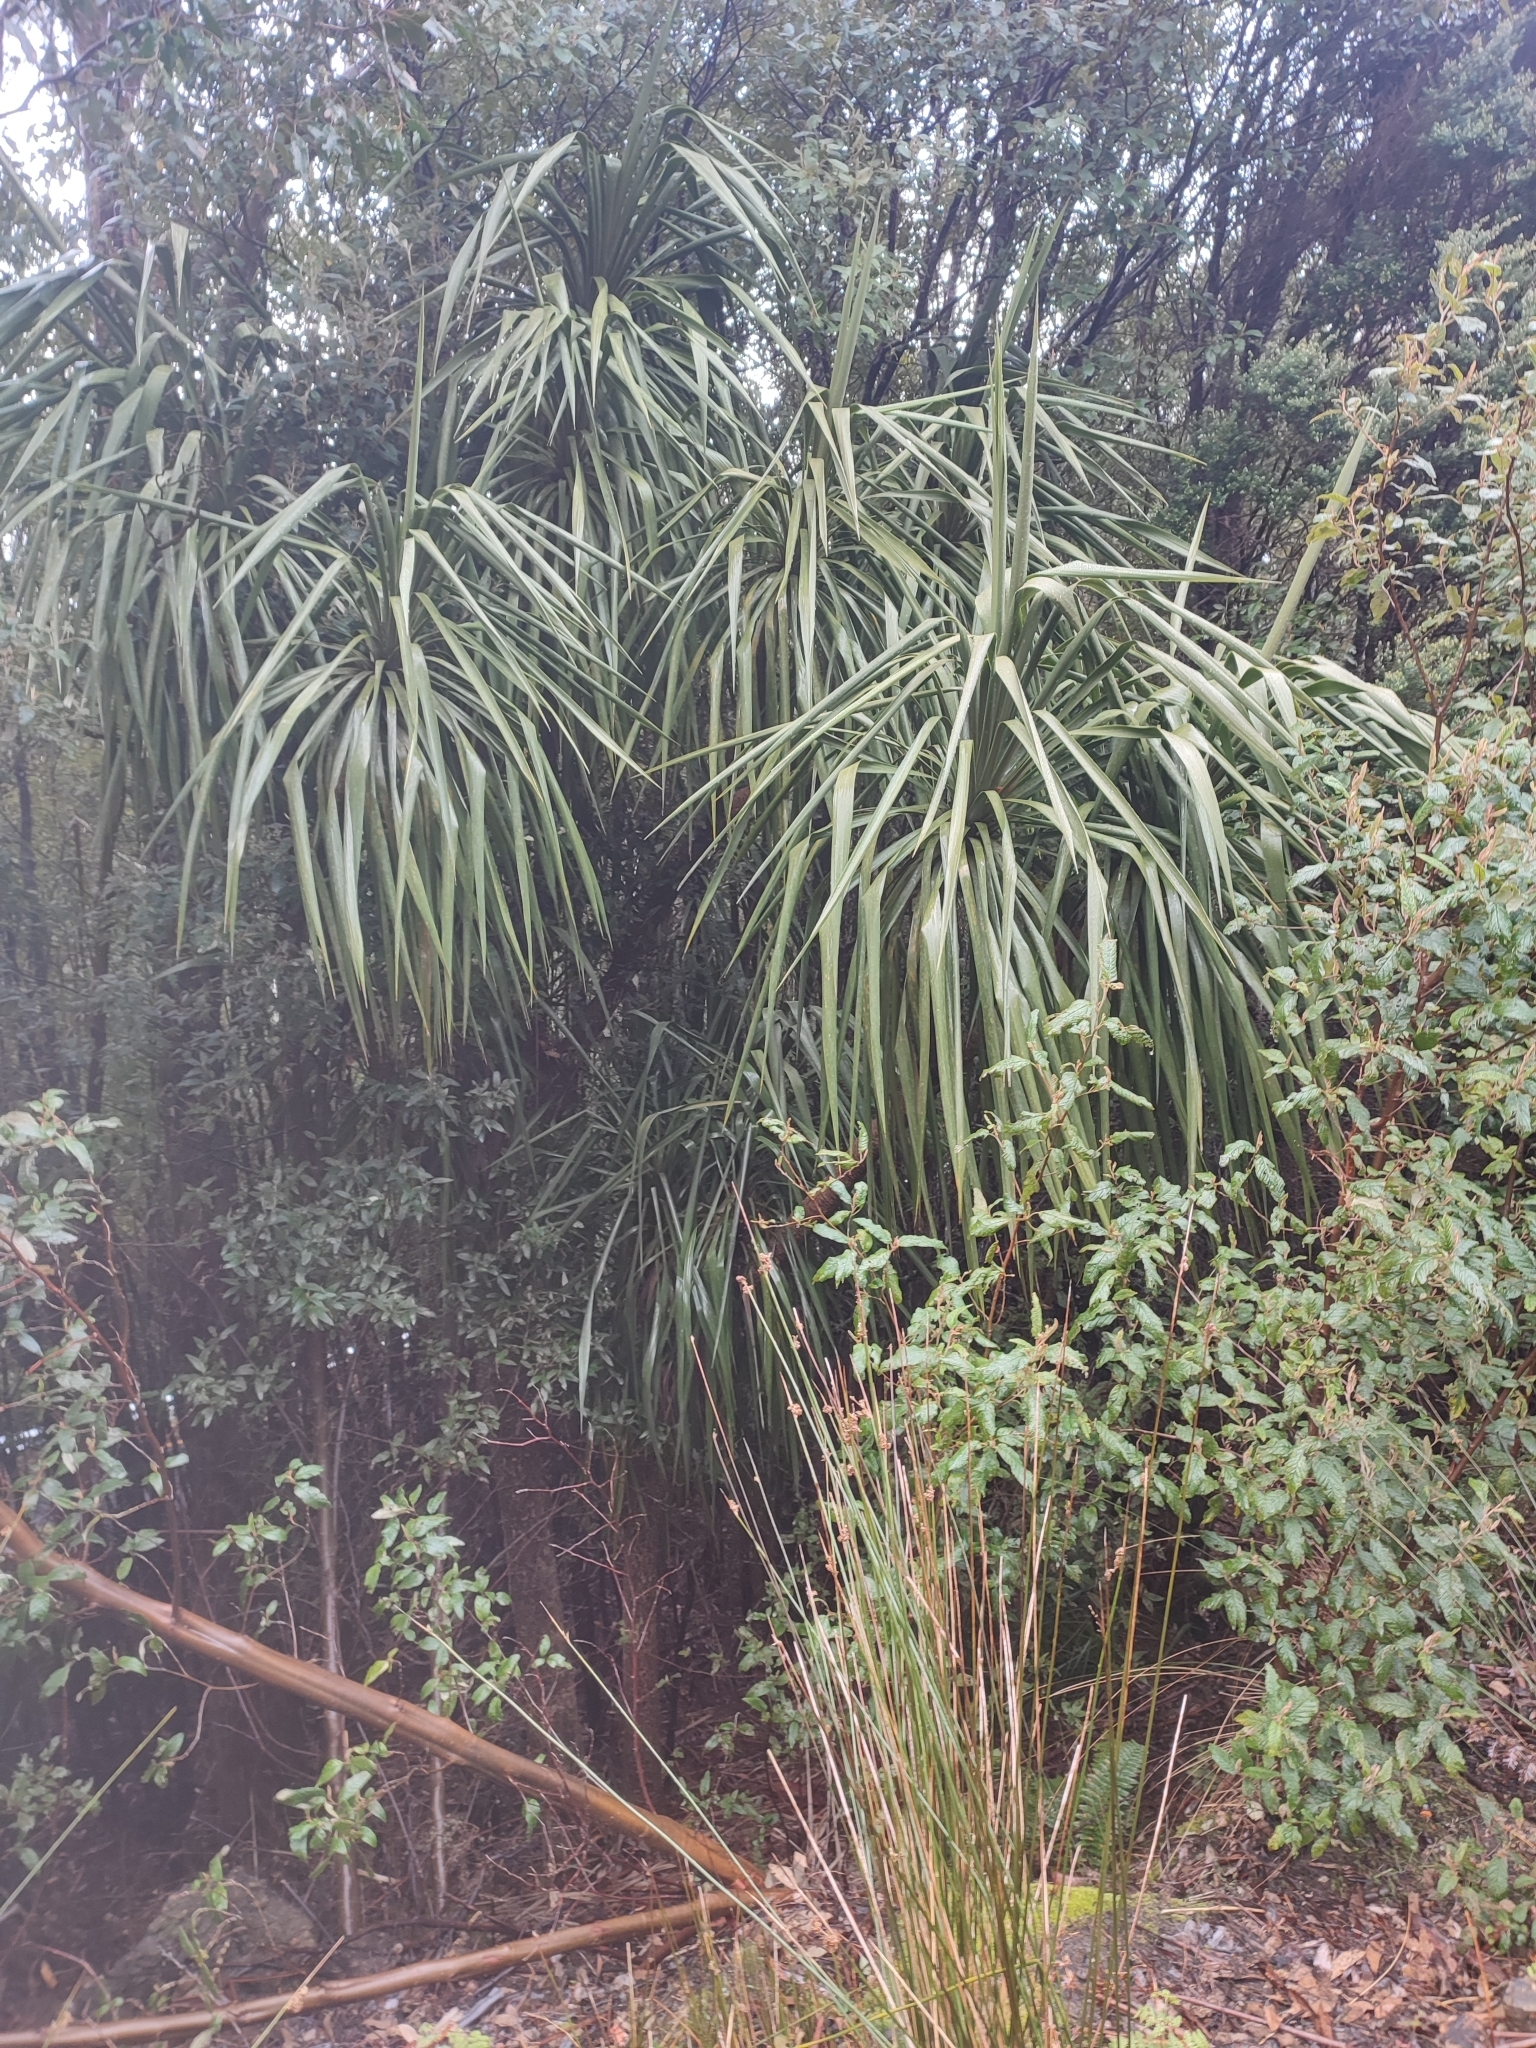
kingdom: Plantae
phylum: Tracheophyta
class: Liliopsida
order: Asparagales
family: Asparagaceae
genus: Cordyline
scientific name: Cordyline australis
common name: Cabbage-palm
